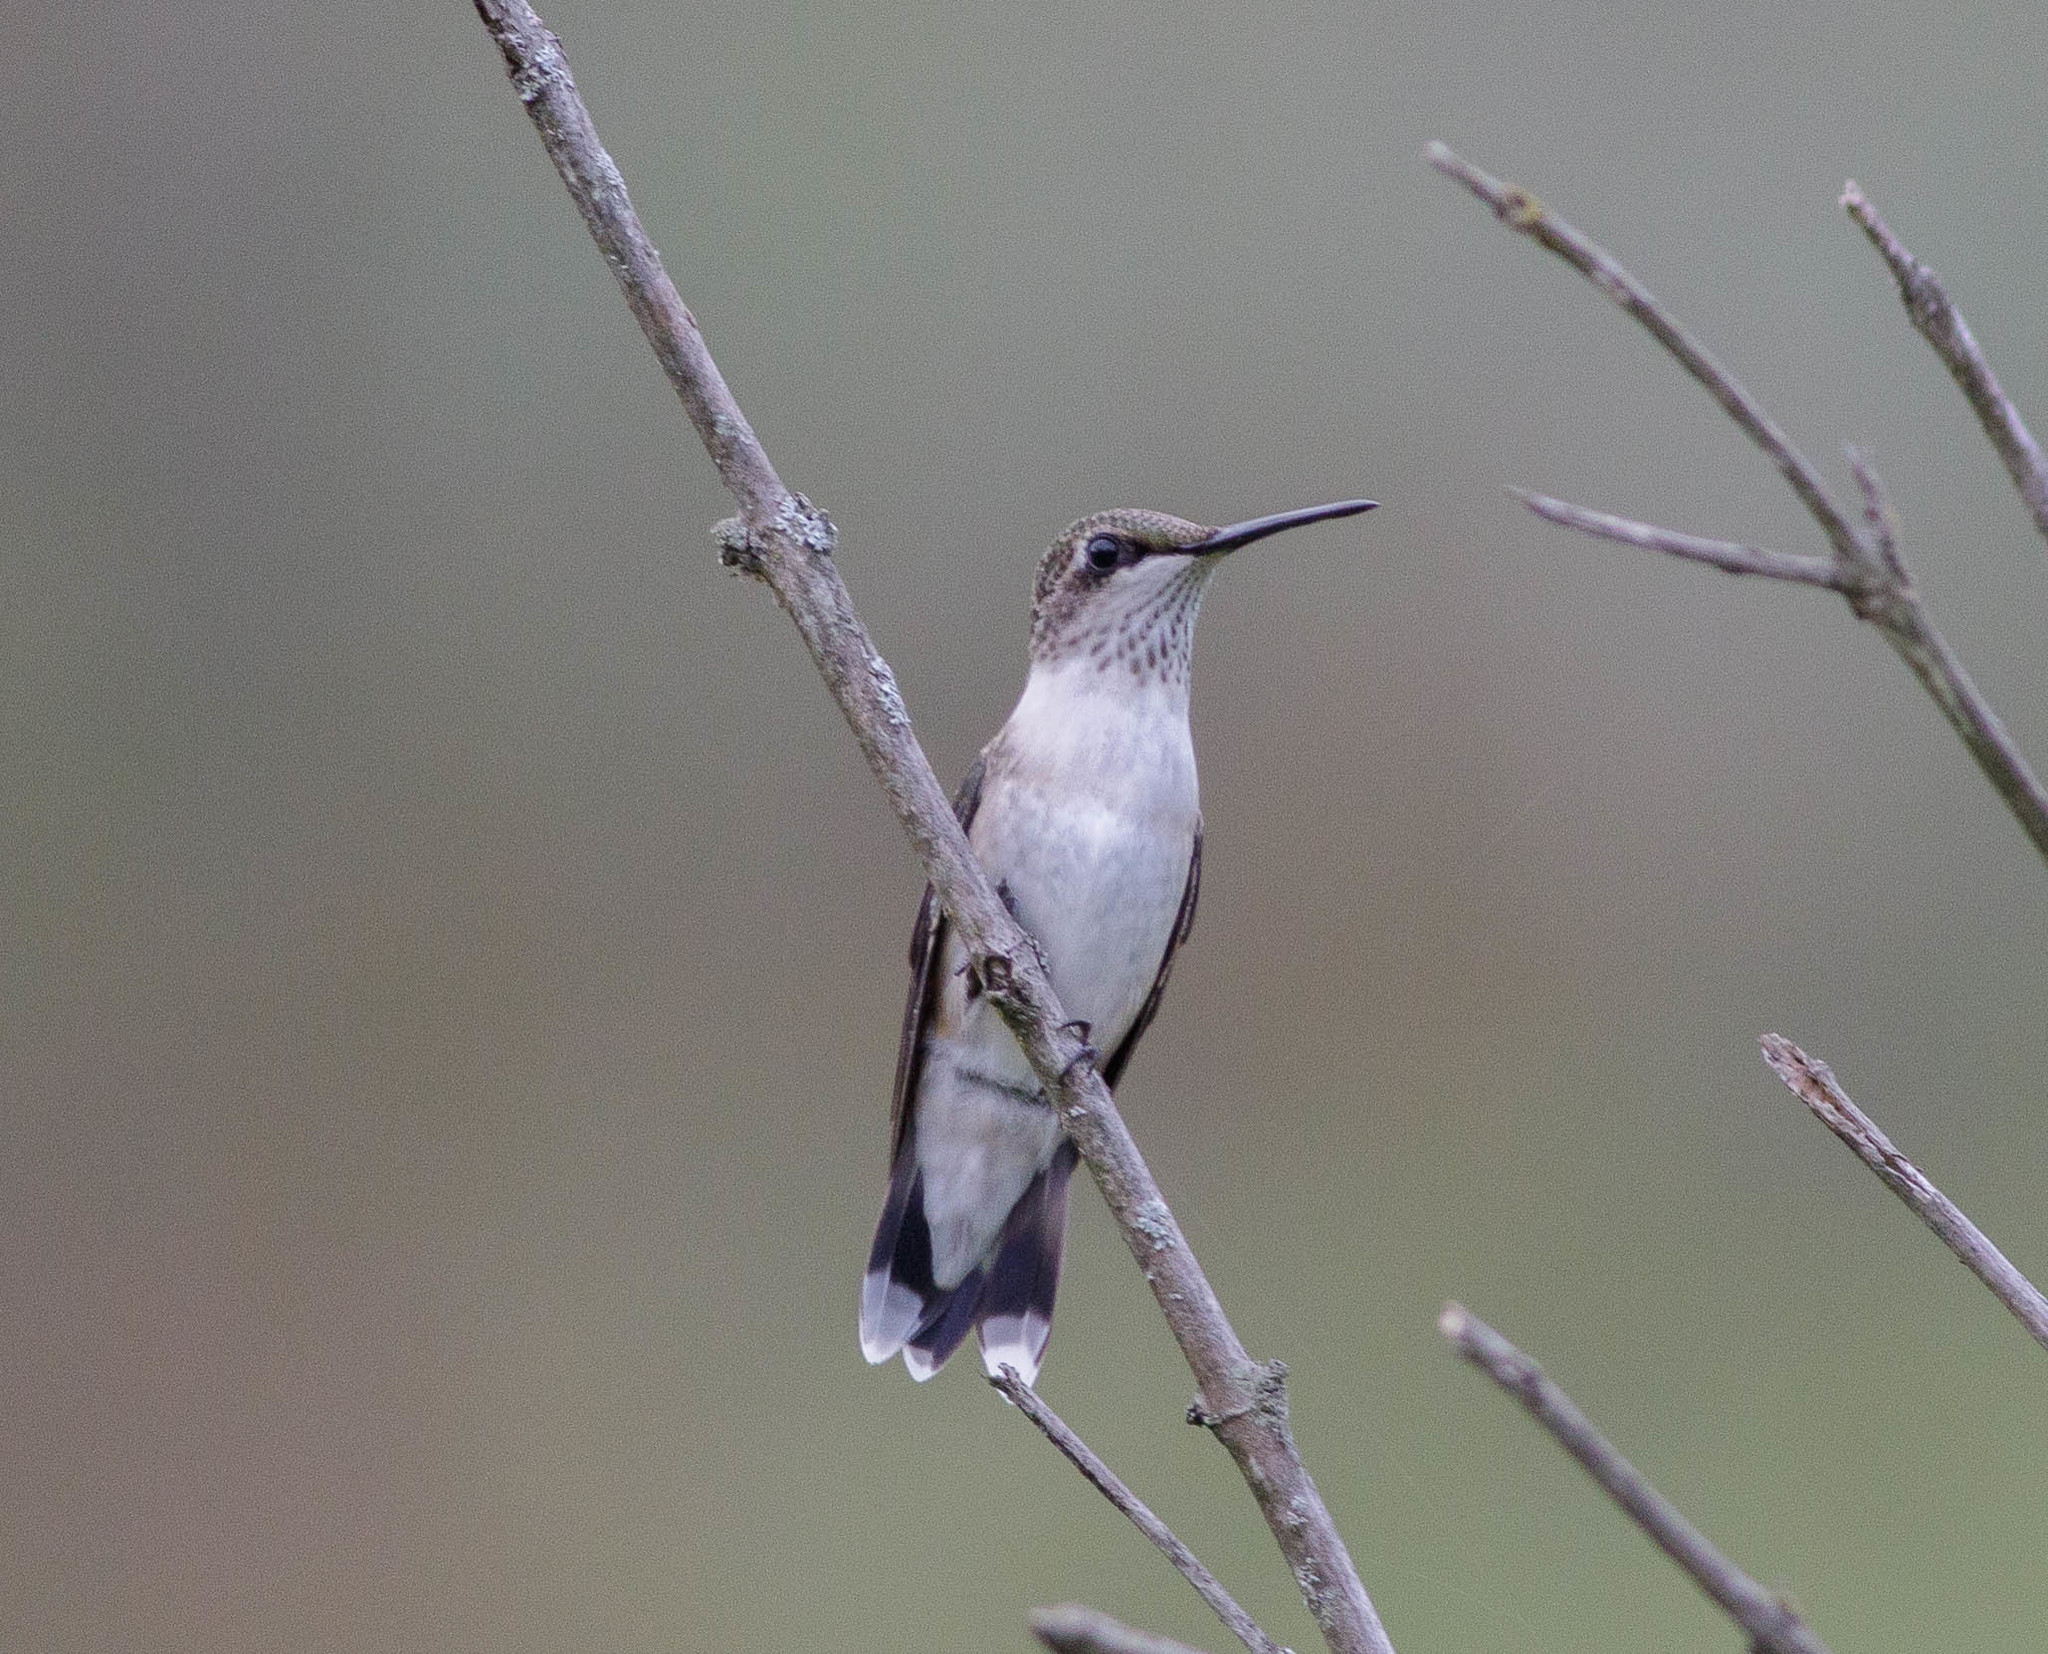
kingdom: Animalia
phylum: Chordata
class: Aves
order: Apodiformes
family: Trochilidae
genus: Archilochus
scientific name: Archilochus colubris
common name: Ruby-throated hummingbird
